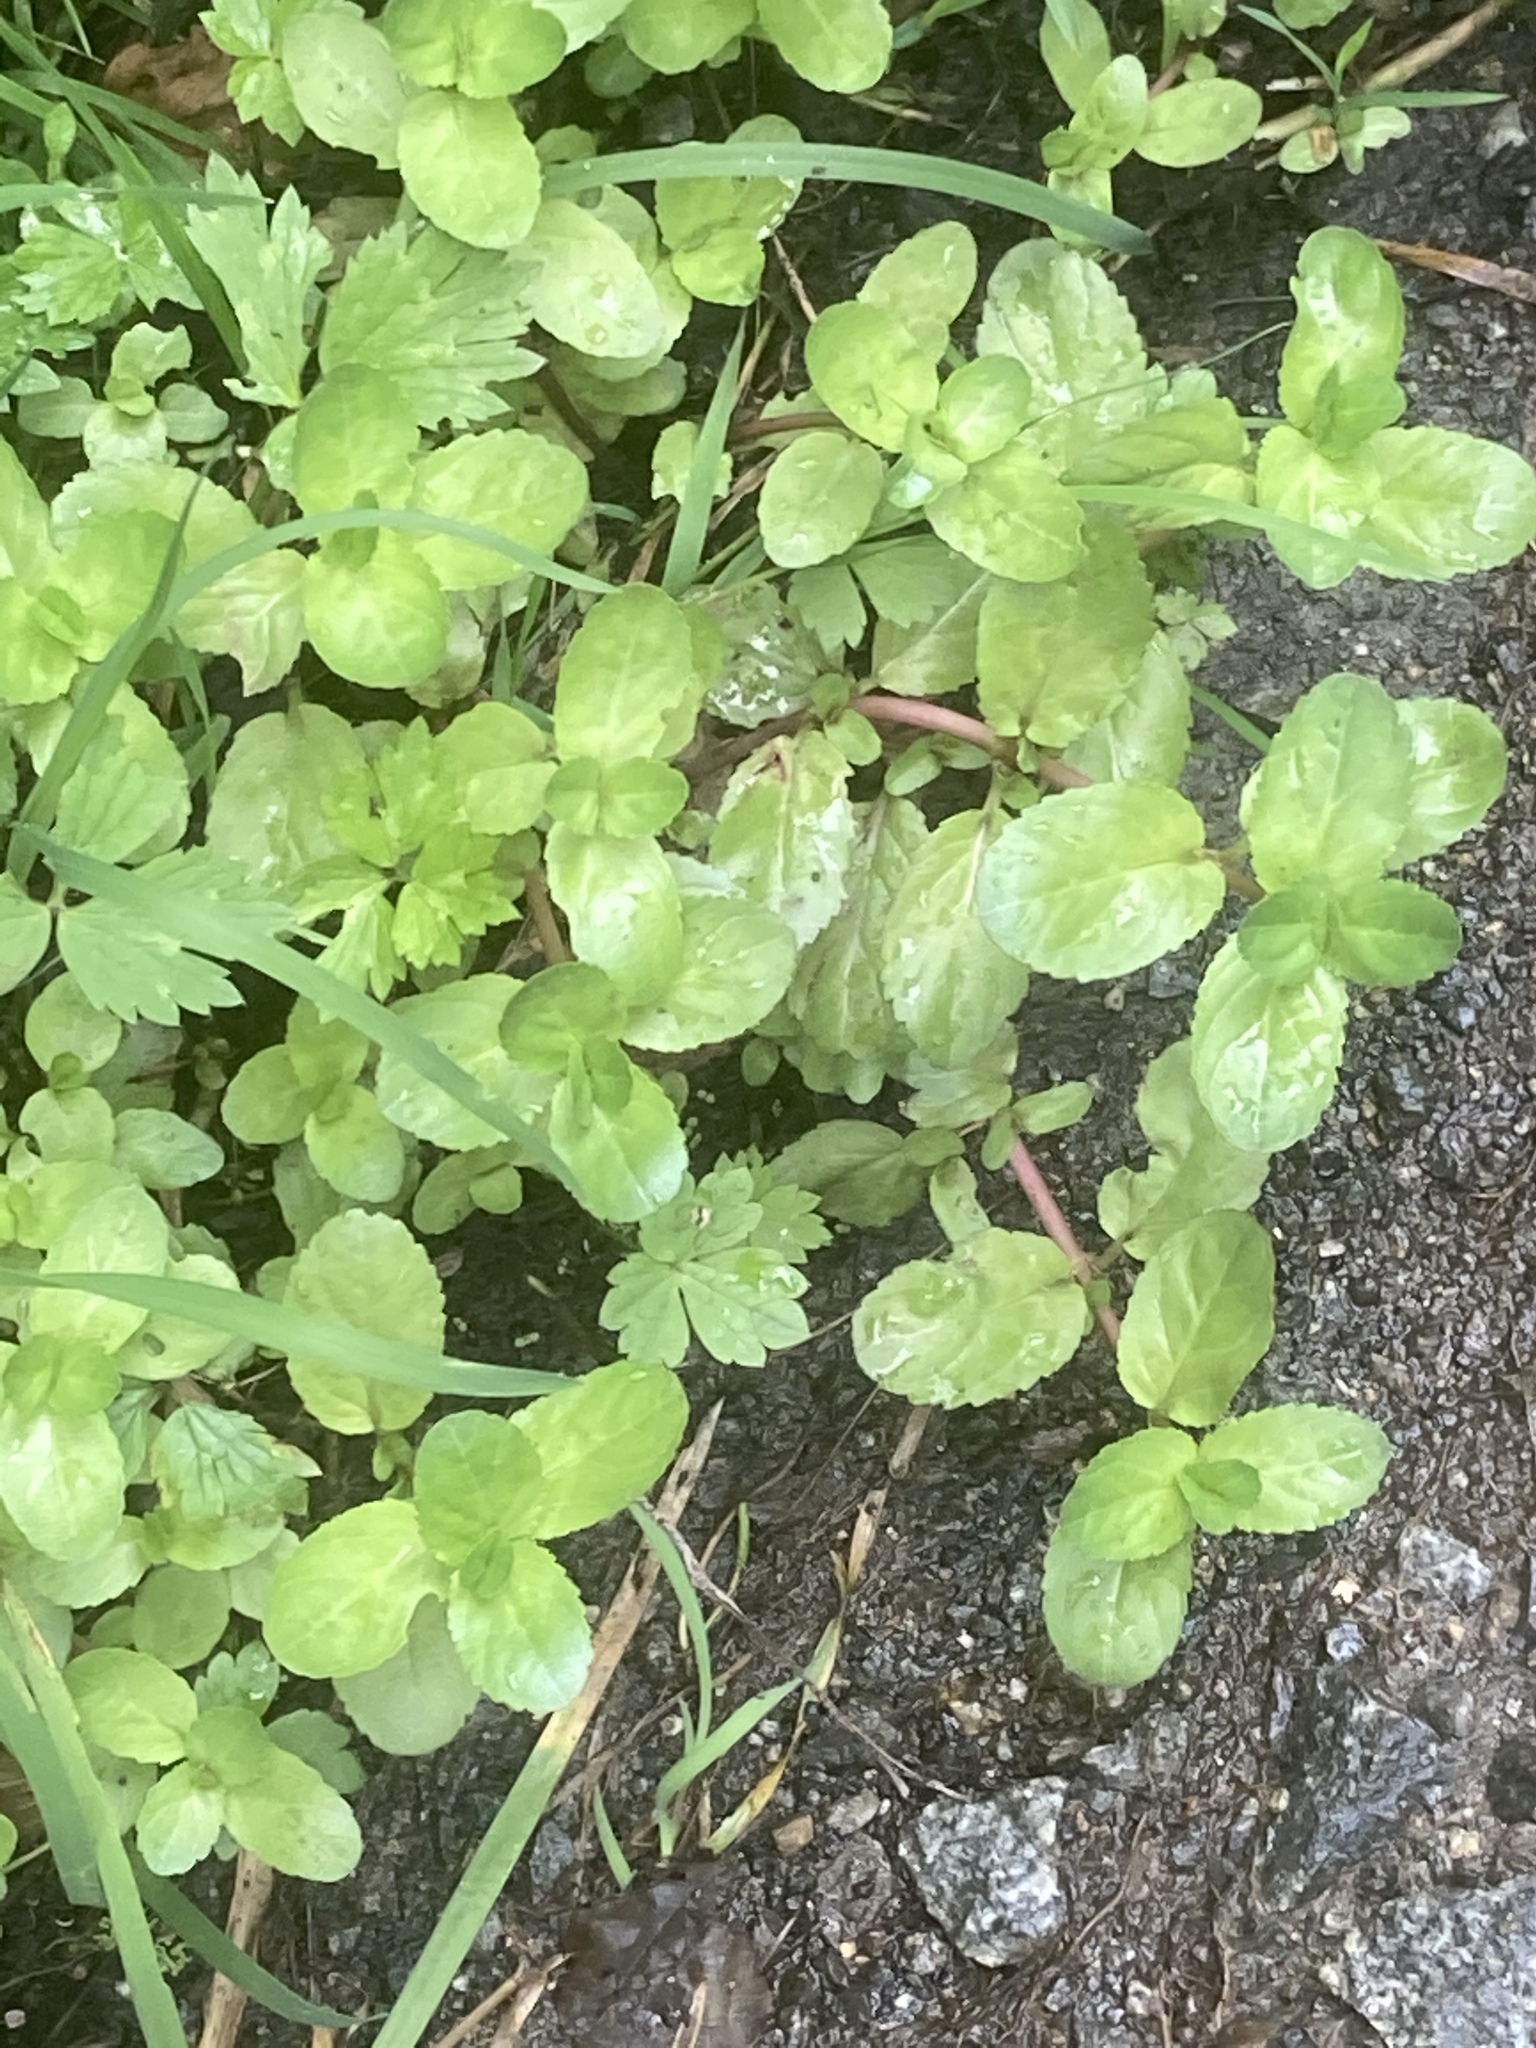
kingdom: Plantae
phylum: Tracheophyta
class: Magnoliopsida
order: Lamiales
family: Plantaginaceae
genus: Veronica
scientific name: Veronica beccabunga
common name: Brooklime
